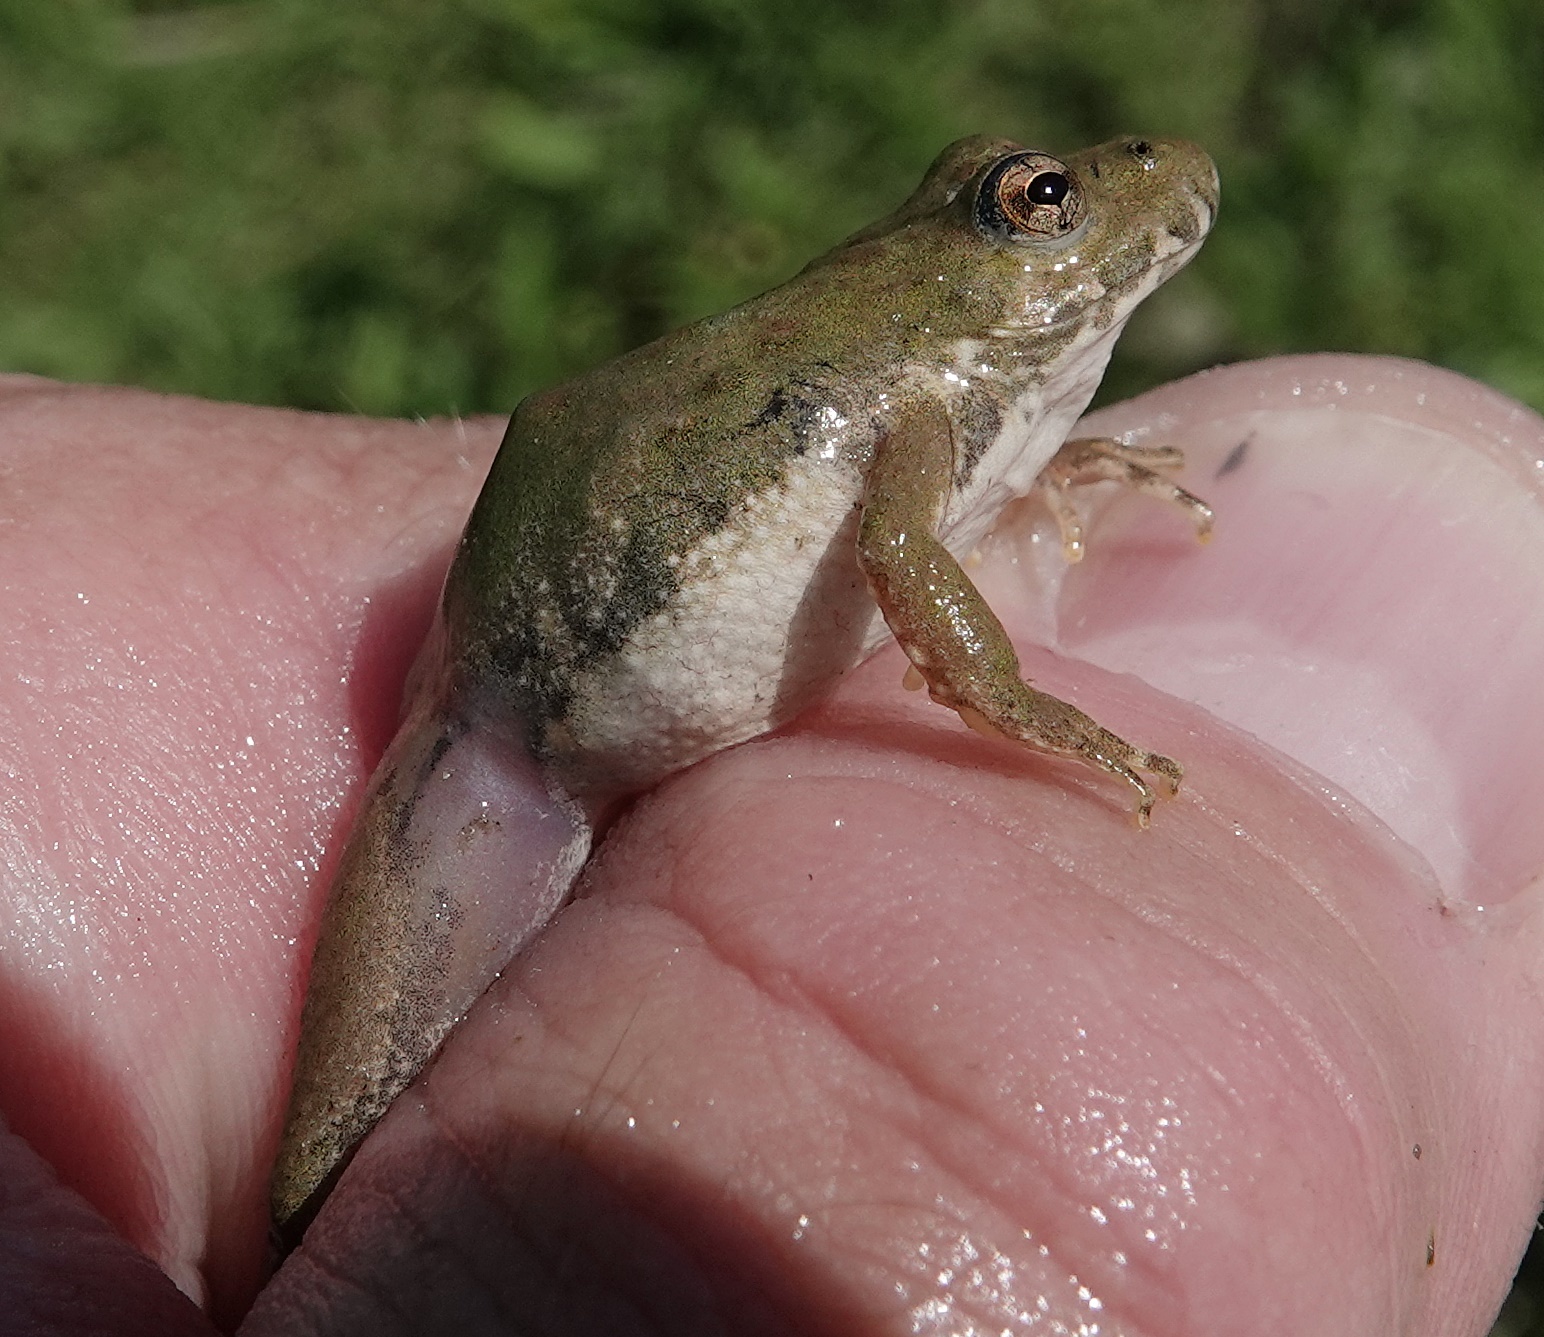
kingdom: Animalia
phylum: Chordata
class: Amphibia
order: Anura
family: Hylidae
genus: Acris
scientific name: Acris blanchardi
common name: Blanchard's cricket frog
